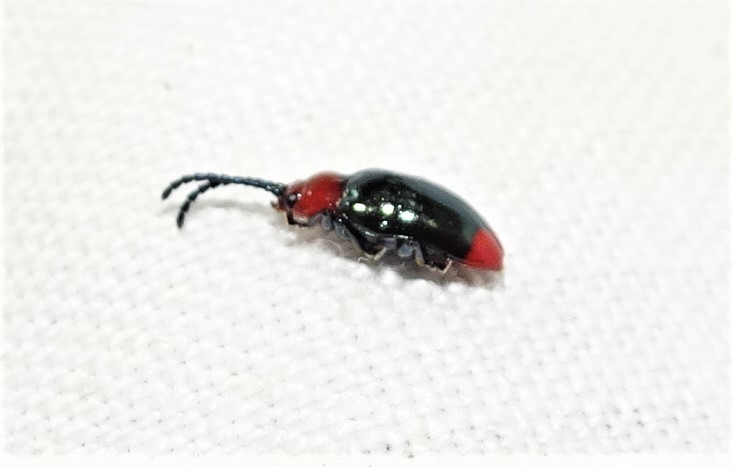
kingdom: Animalia
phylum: Arthropoda
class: Insecta
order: Coleoptera
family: Chrysomelidae
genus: Phyllocharis
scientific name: Phyllocharis
